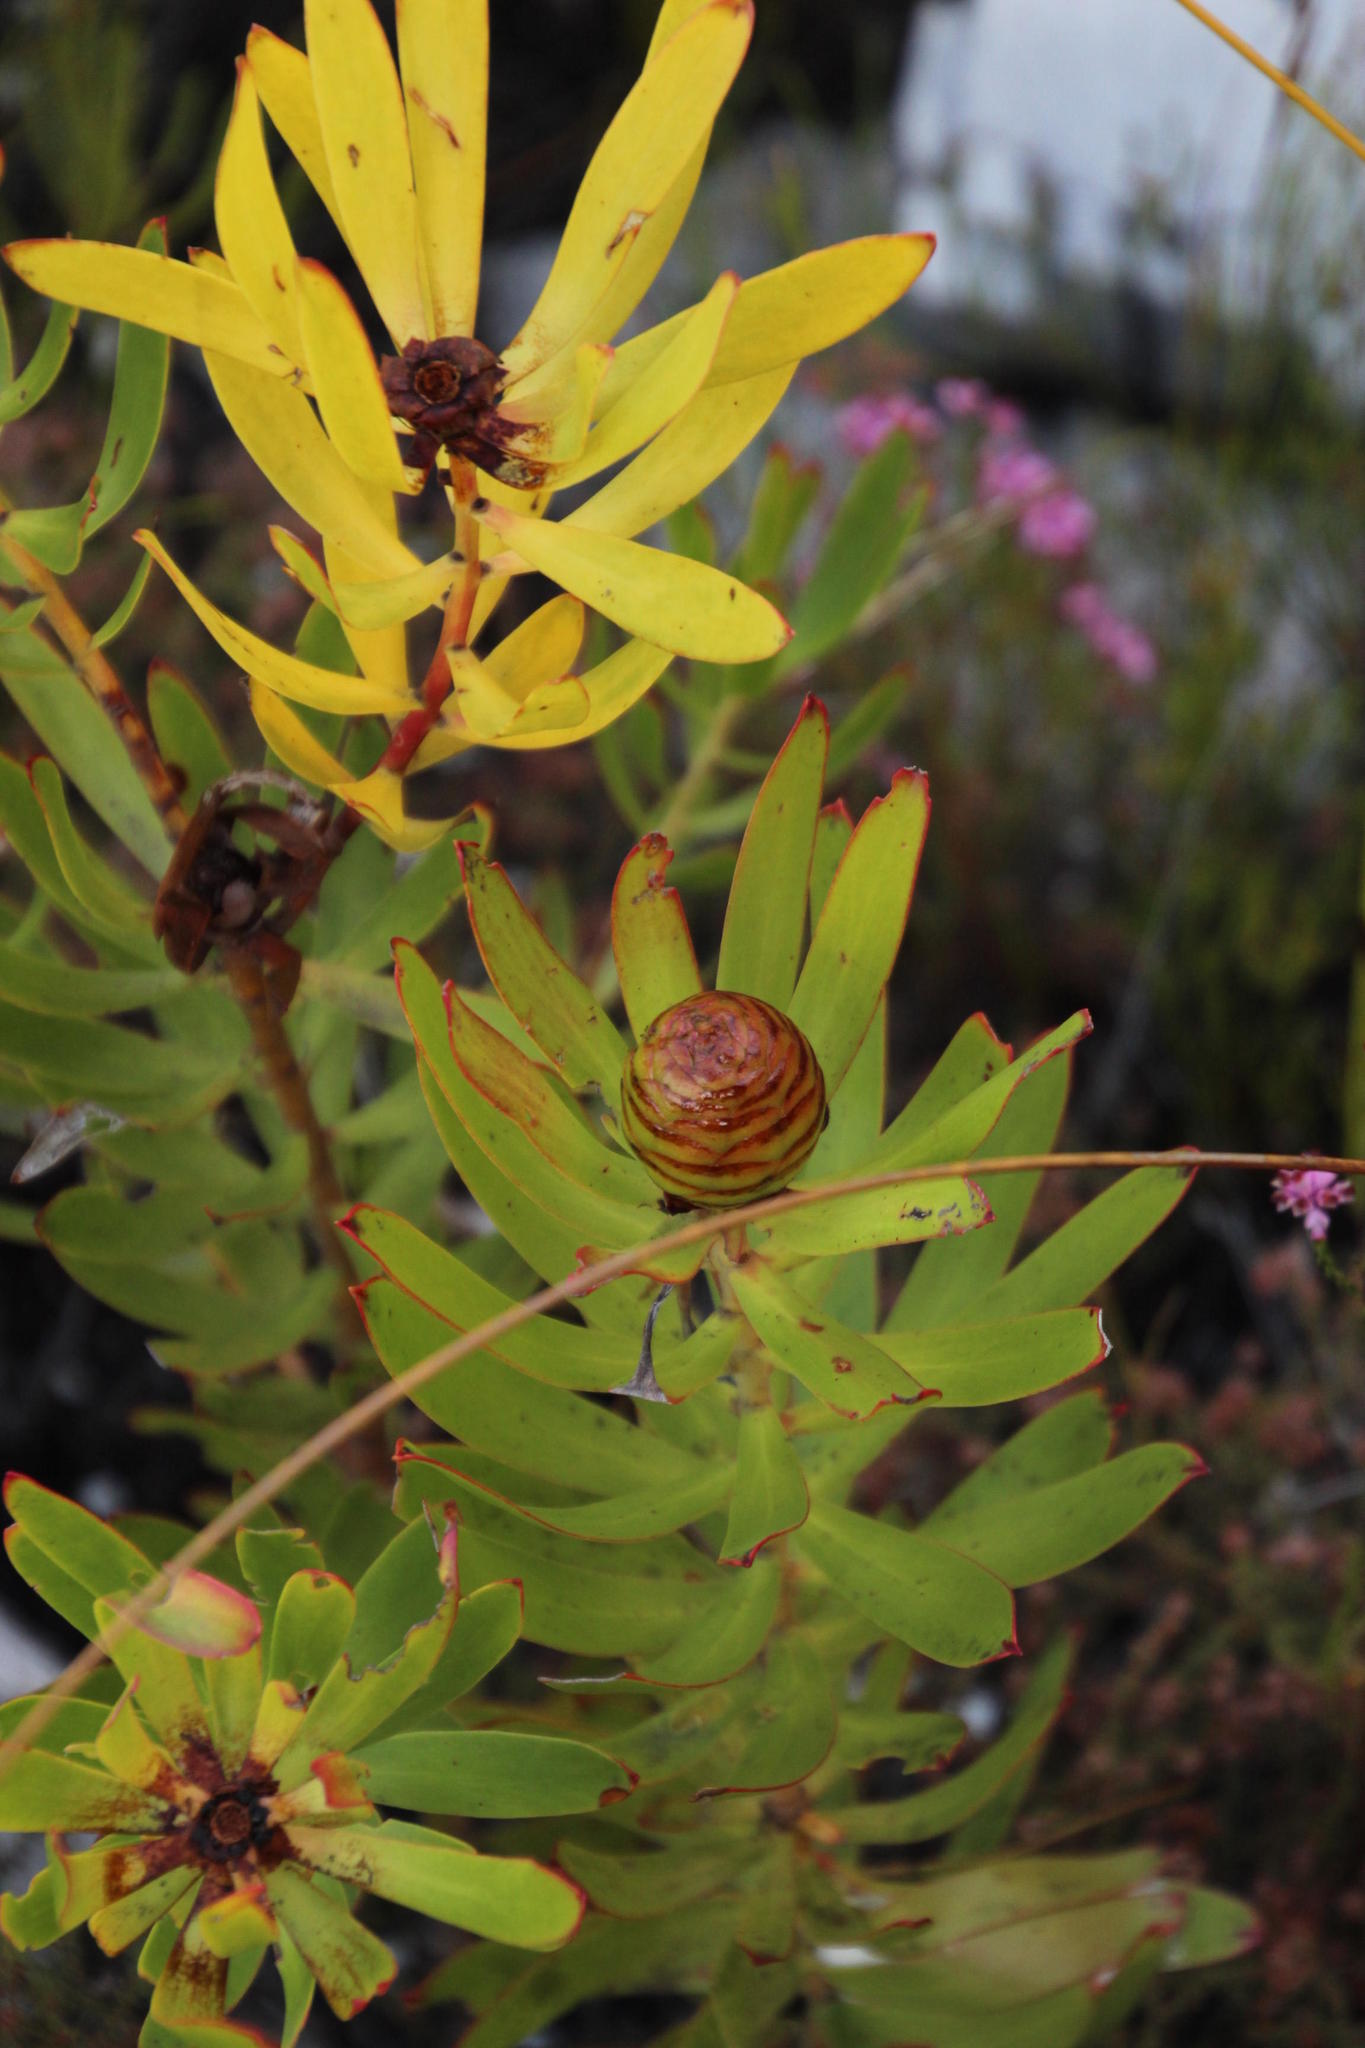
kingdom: Plantae
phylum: Tracheophyta
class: Magnoliopsida
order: Proteales
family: Proteaceae
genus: Leucadendron
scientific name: Leucadendron microcephalum
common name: Oilbract conebush
